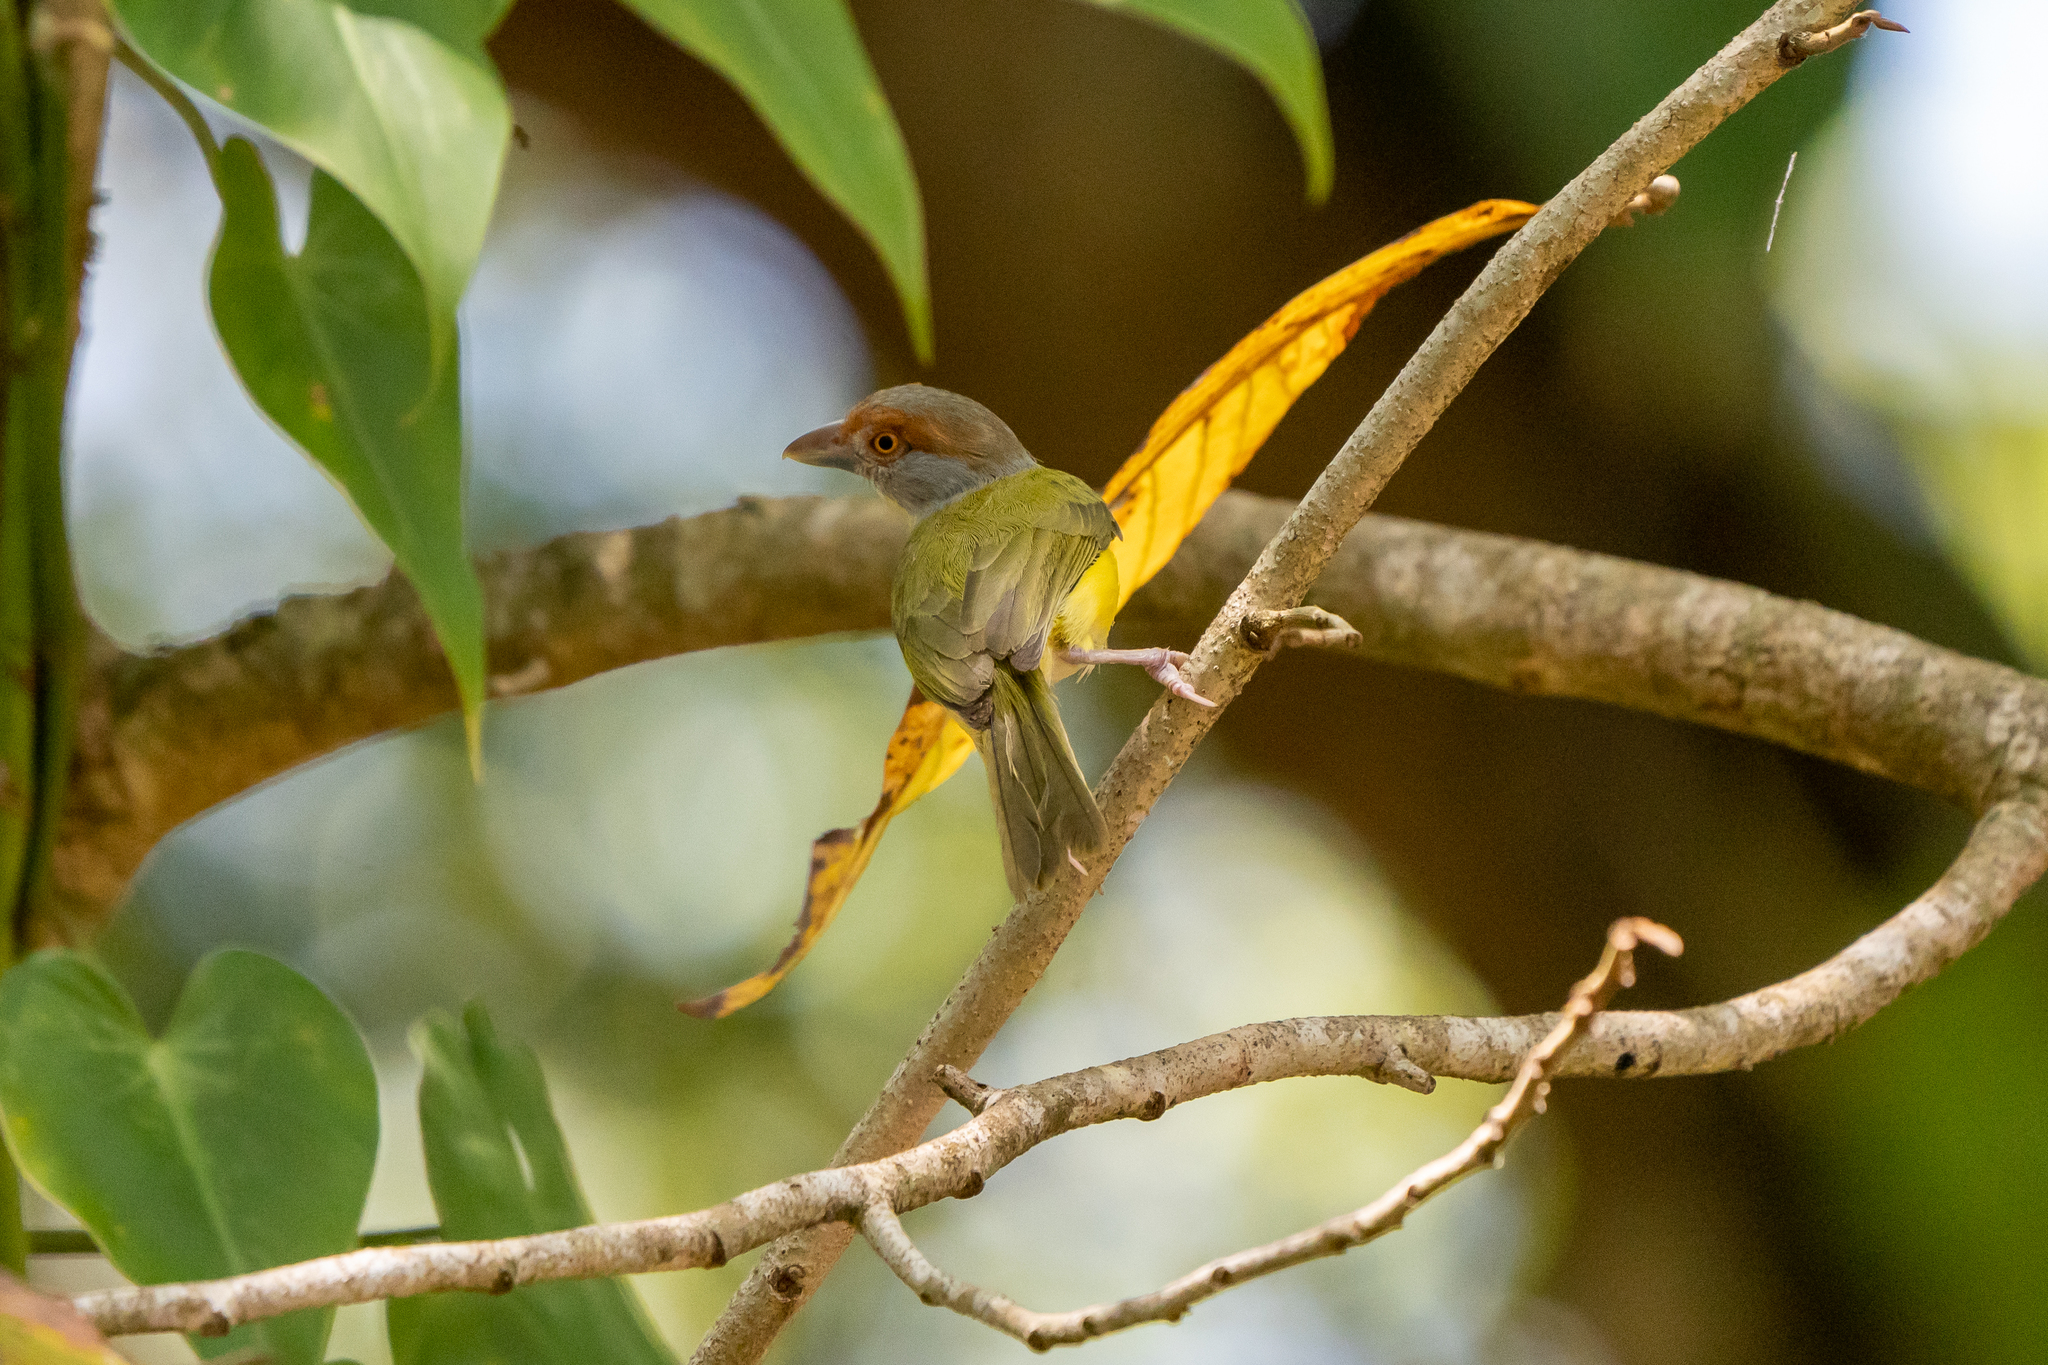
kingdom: Animalia
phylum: Chordata
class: Aves
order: Passeriformes
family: Vireonidae
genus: Cyclarhis
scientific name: Cyclarhis gujanensis
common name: Rufous-browed peppershrike
